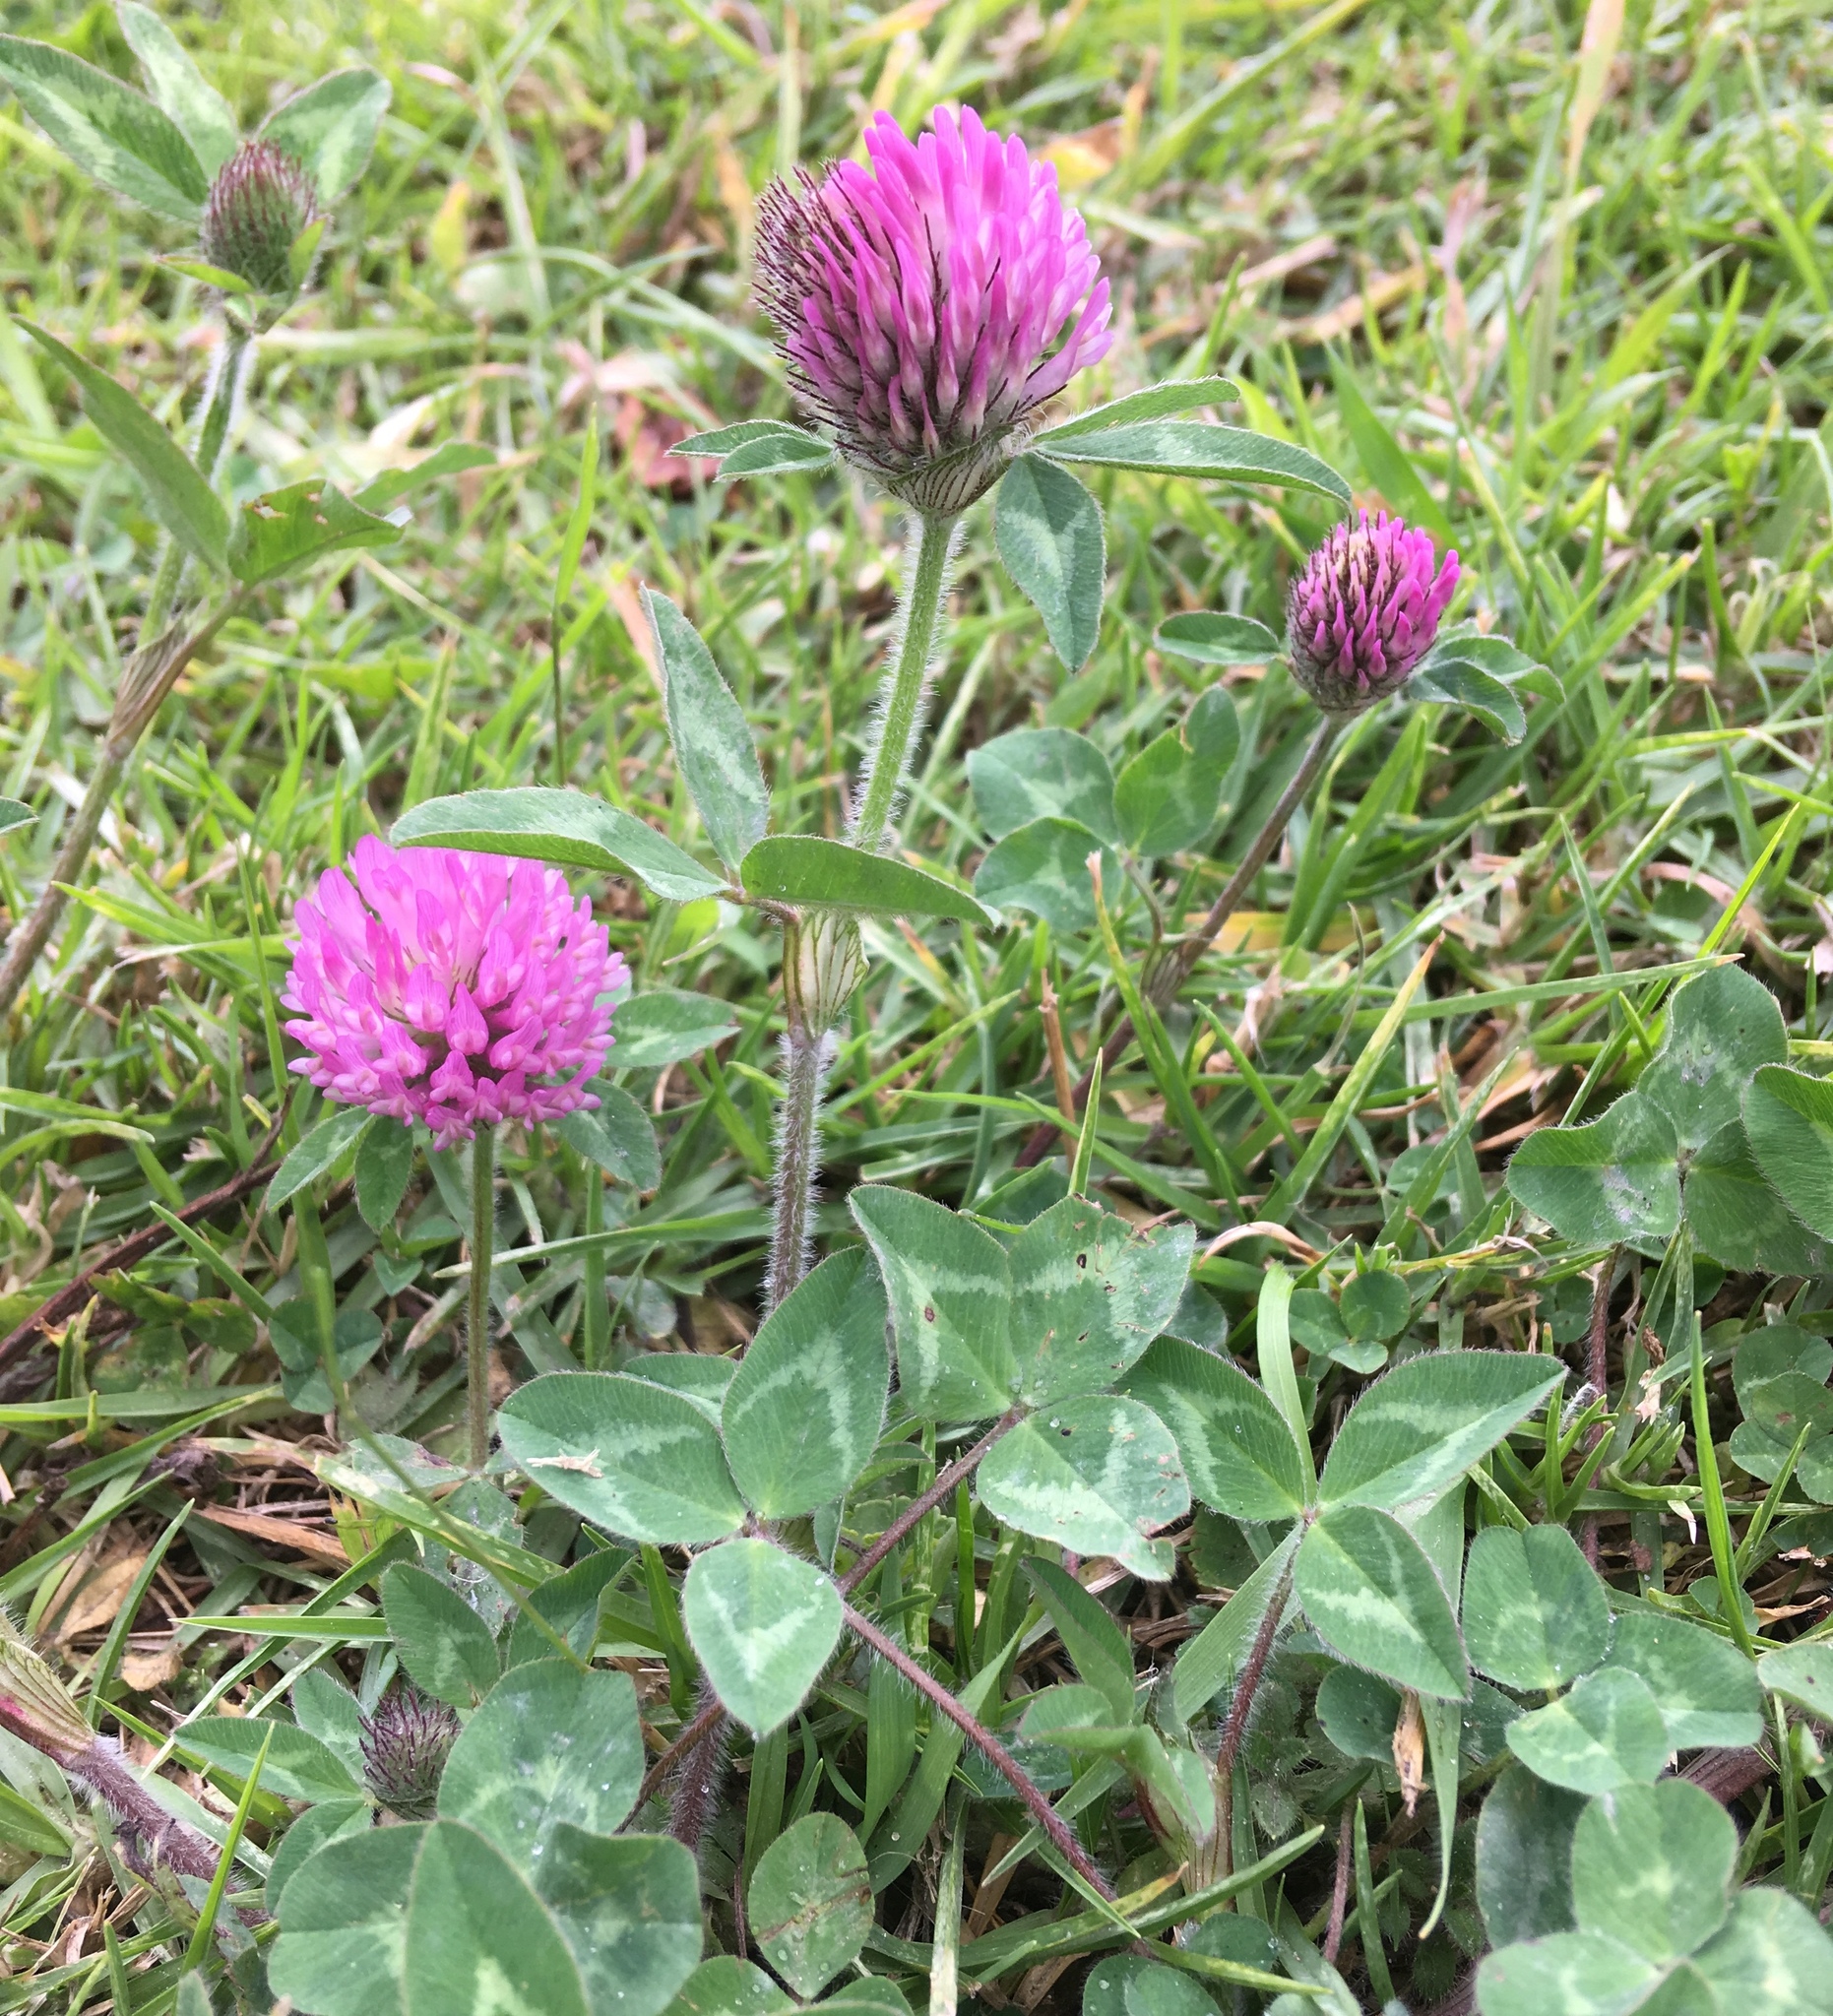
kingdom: Plantae
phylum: Tracheophyta
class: Magnoliopsida
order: Fabales
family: Fabaceae
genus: Trifolium
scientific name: Trifolium pratense
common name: Red clover
